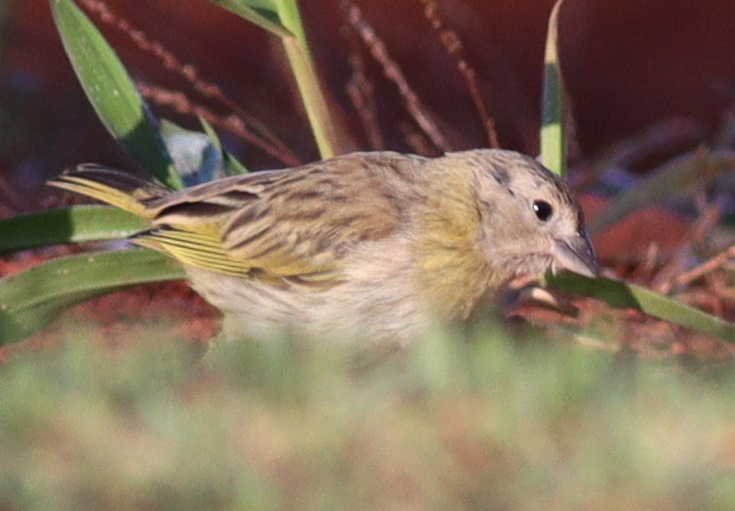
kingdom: Animalia
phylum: Chordata
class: Aves
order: Passeriformes
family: Thraupidae
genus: Sicalis
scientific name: Sicalis flaveola
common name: Saffron finch
